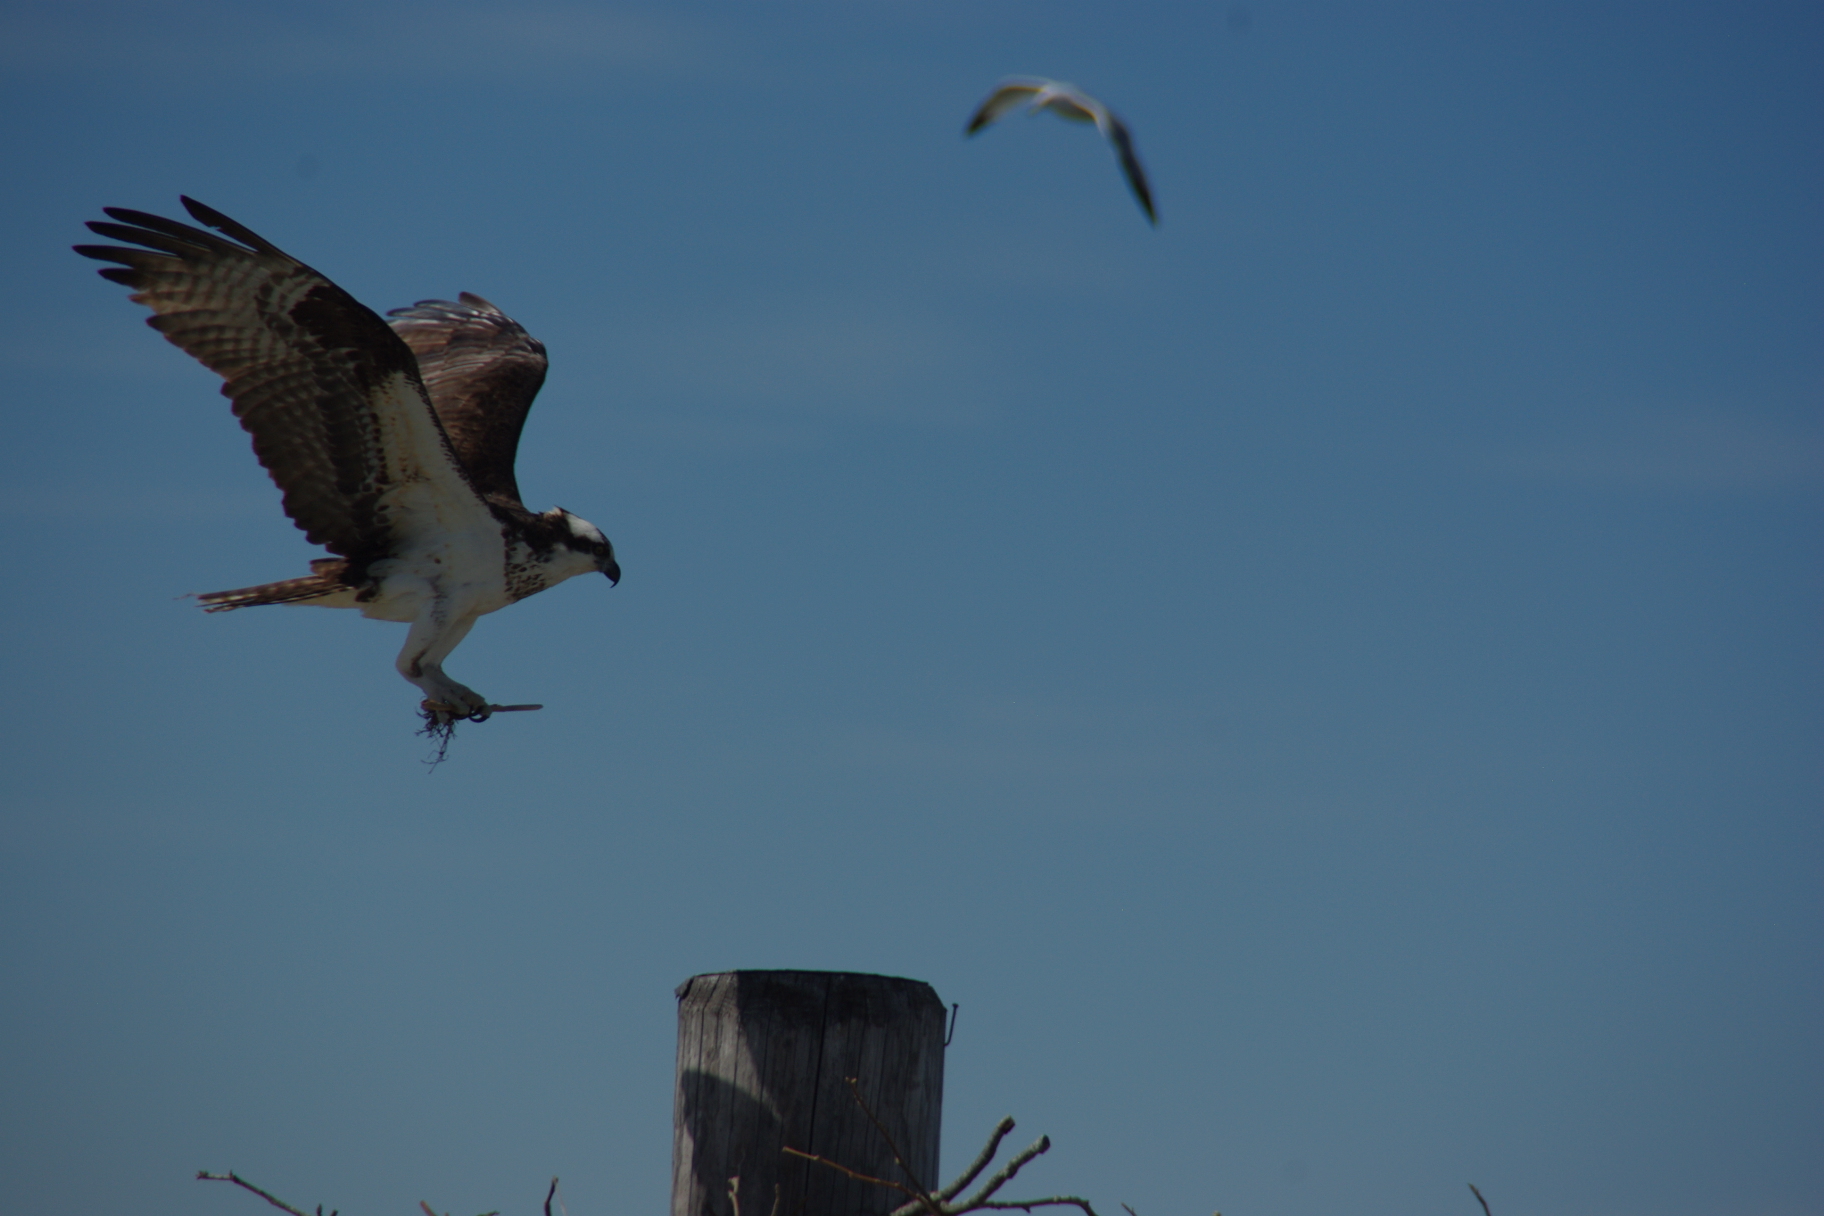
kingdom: Animalia
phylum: Chordata
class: Aves
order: Accipitriformes
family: Pandionidae
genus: Pandion
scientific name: Pandion haliaetus
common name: Osprey
